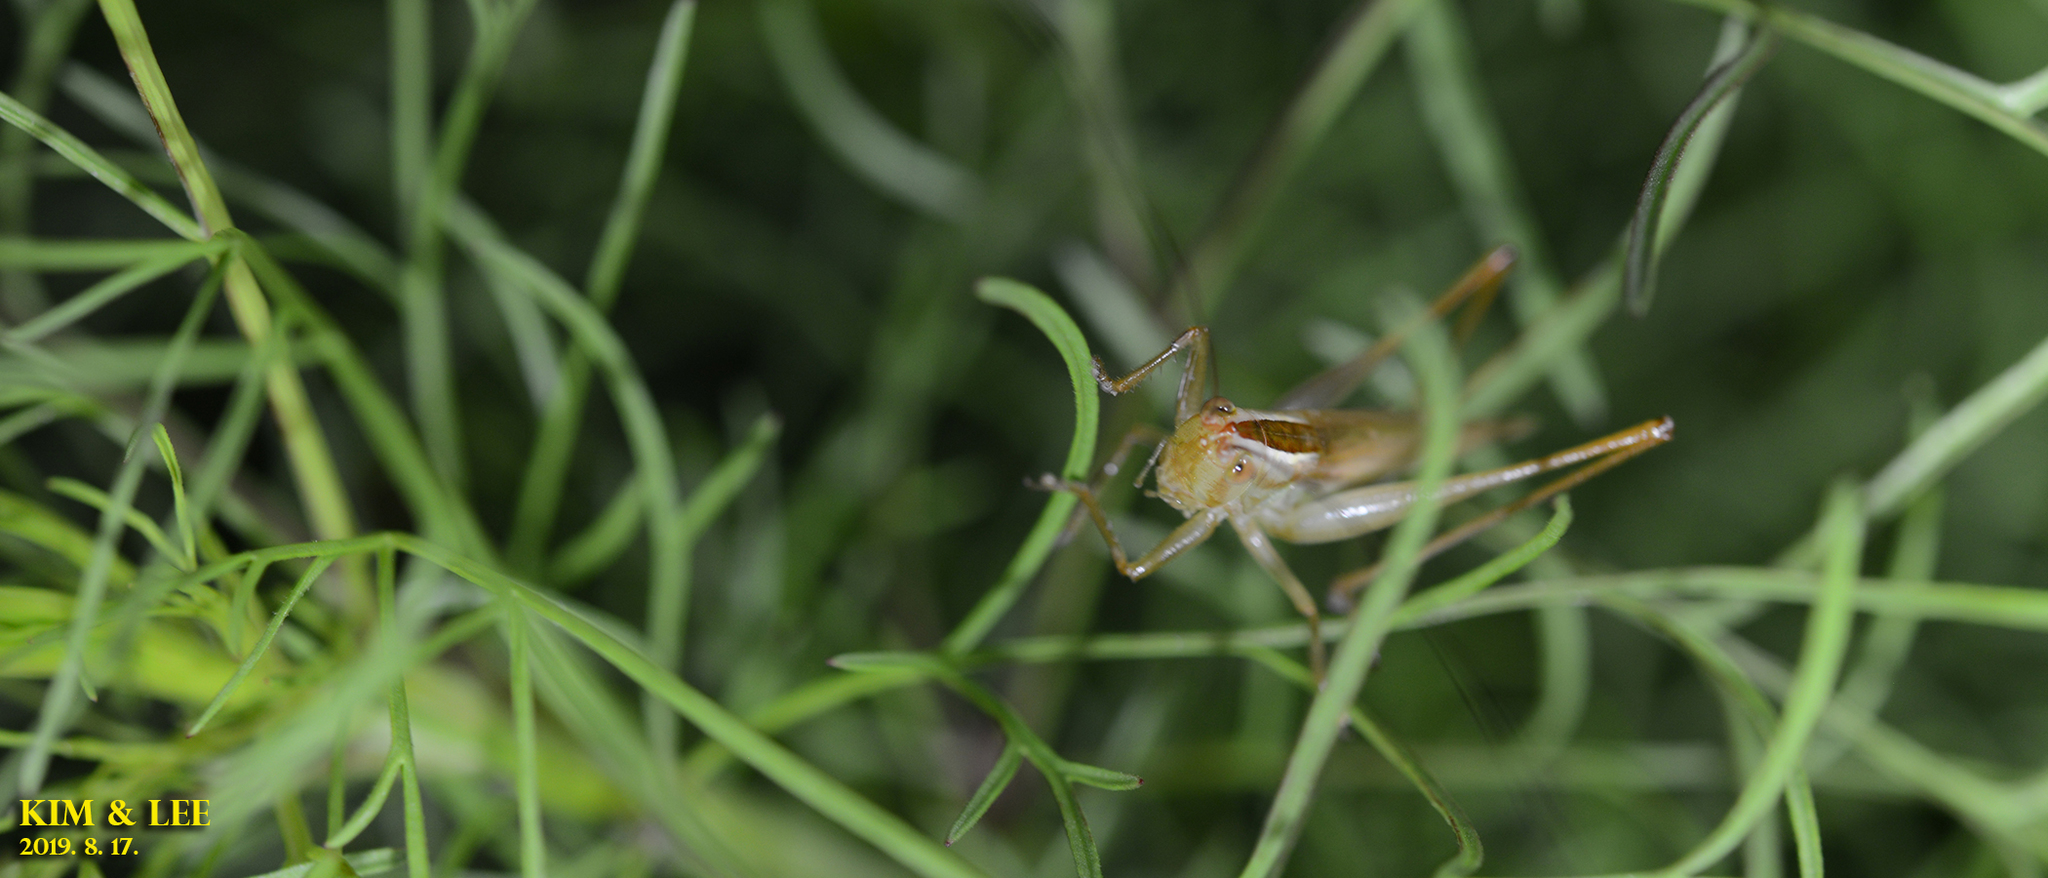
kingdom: Animalia
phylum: Arthropoda
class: Insecta
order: Orthoptera
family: Tettigoniidae
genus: Conocephalus
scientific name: Conocephalus exemptus
